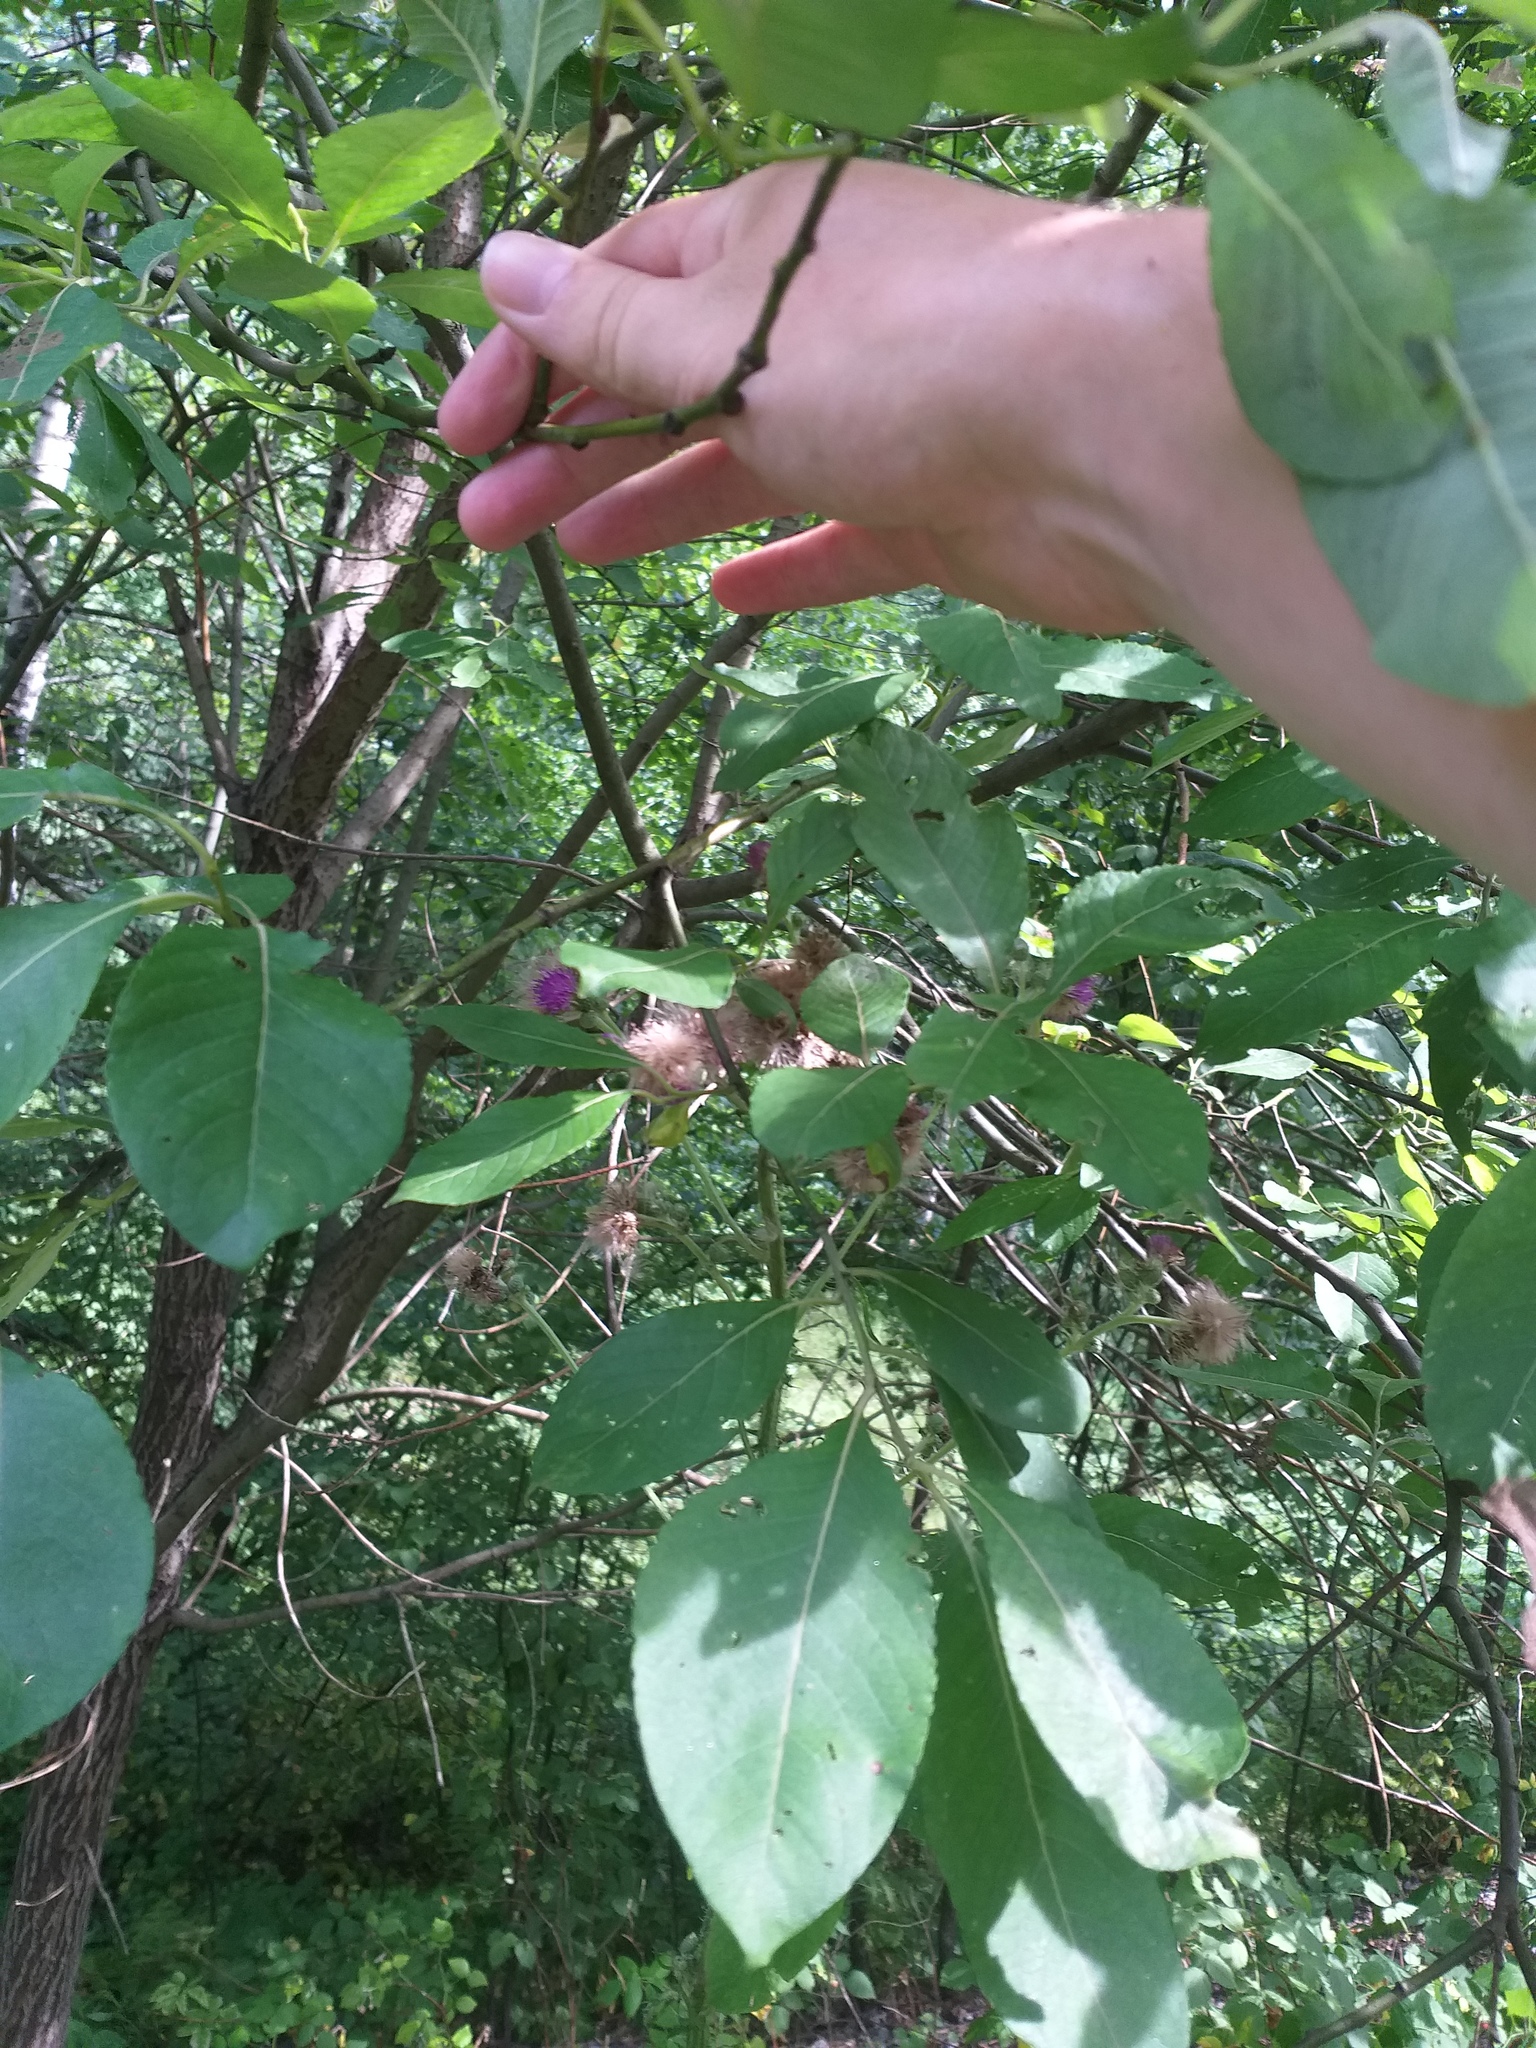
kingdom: Plantae
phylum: Tracheophyta
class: Magnoliopsida
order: Asterales
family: Asteraceae
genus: Cirsium
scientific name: Cirsium palustre
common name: Marsh thistle
